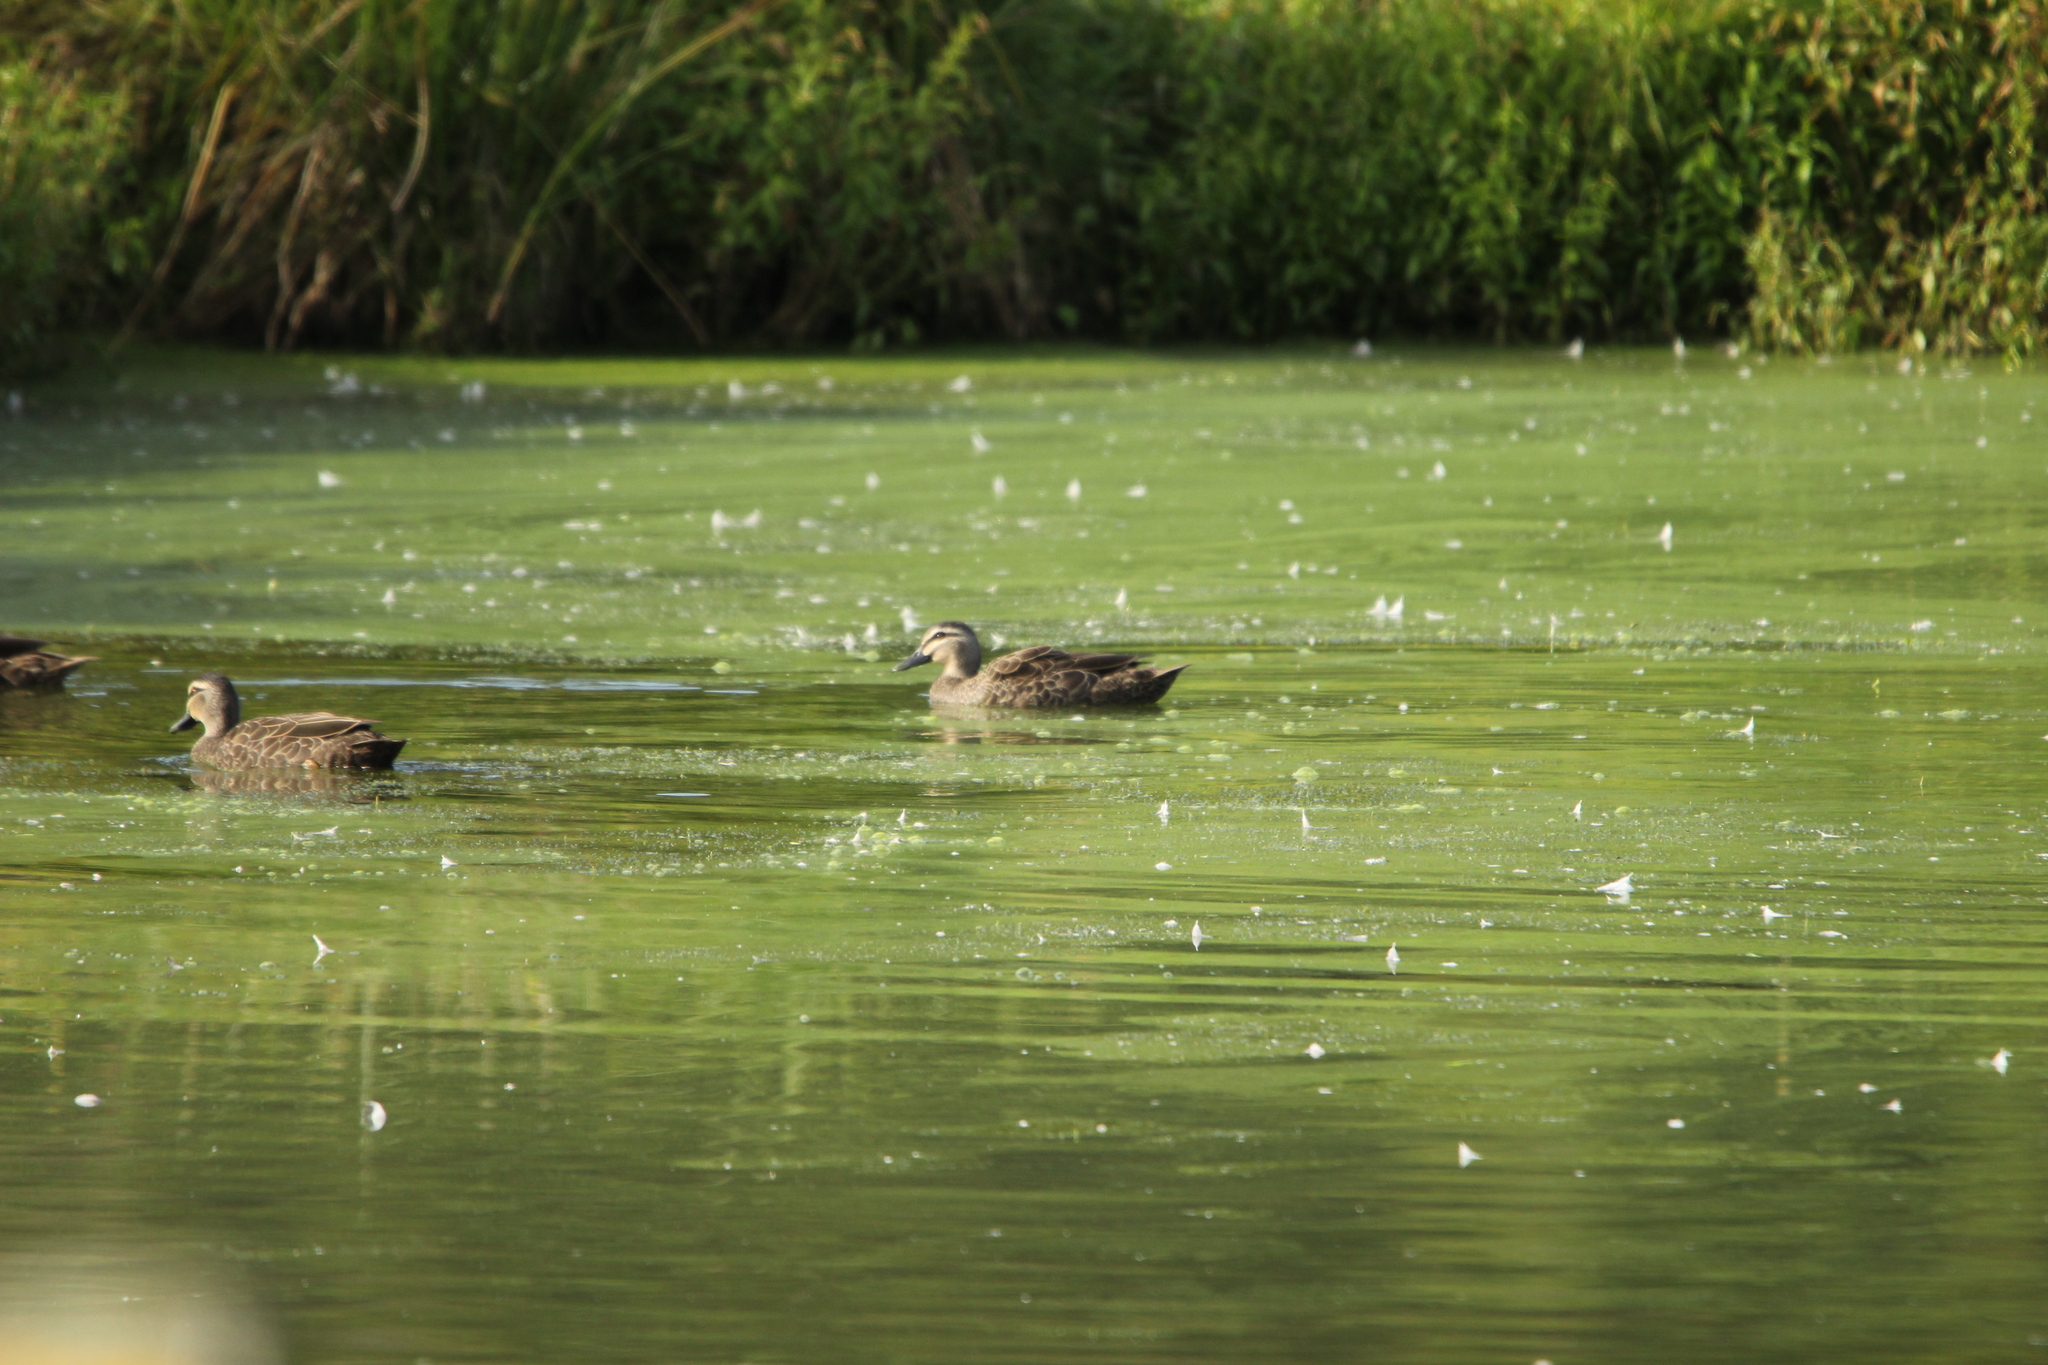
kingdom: Animalia
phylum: Chordata
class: Aves
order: Anseriformes
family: Anatidae
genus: Anas
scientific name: Anas
